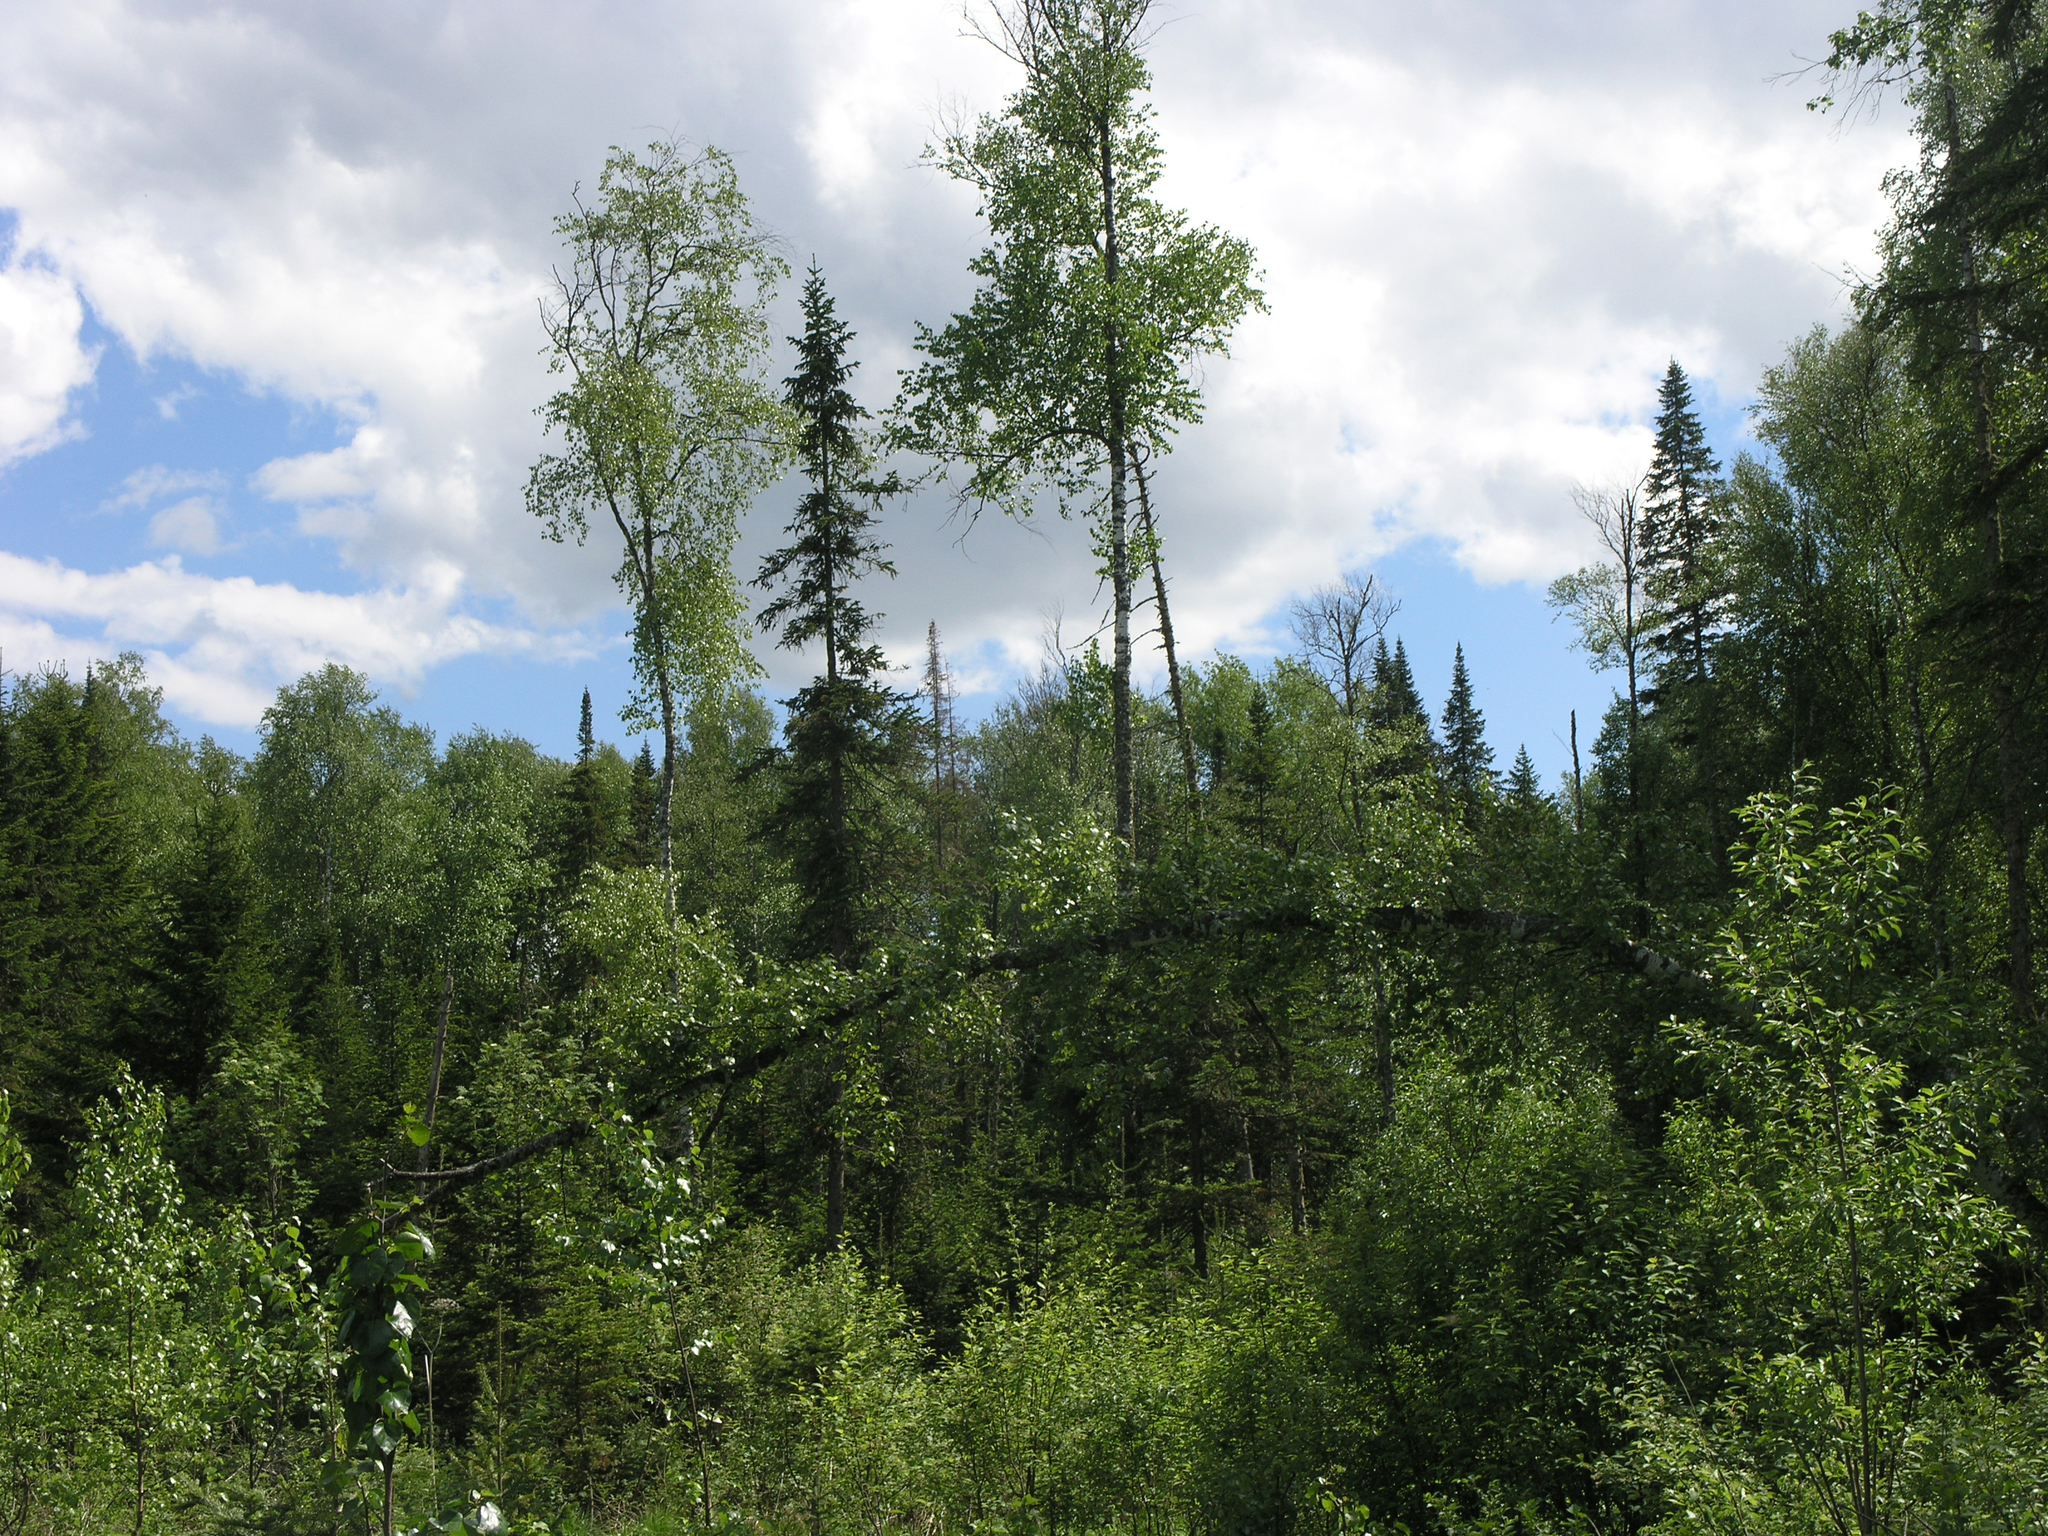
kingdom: Plantae
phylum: Tracheophyta
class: Pinopsida
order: Pinales
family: Pinaceae
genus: Abies
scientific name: Abies sibirica
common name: Siberian fir
